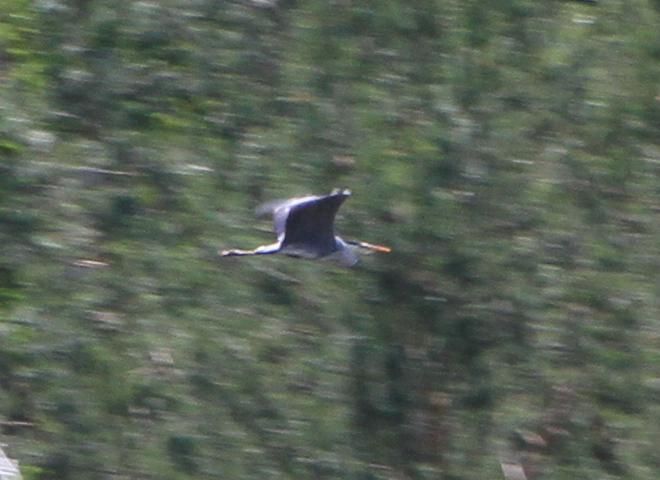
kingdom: Animalia
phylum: Chordata
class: Aves
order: Pelecaniformes
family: Ardeidae
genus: Ardea
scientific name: Ardea cinerea
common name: Grey heron
